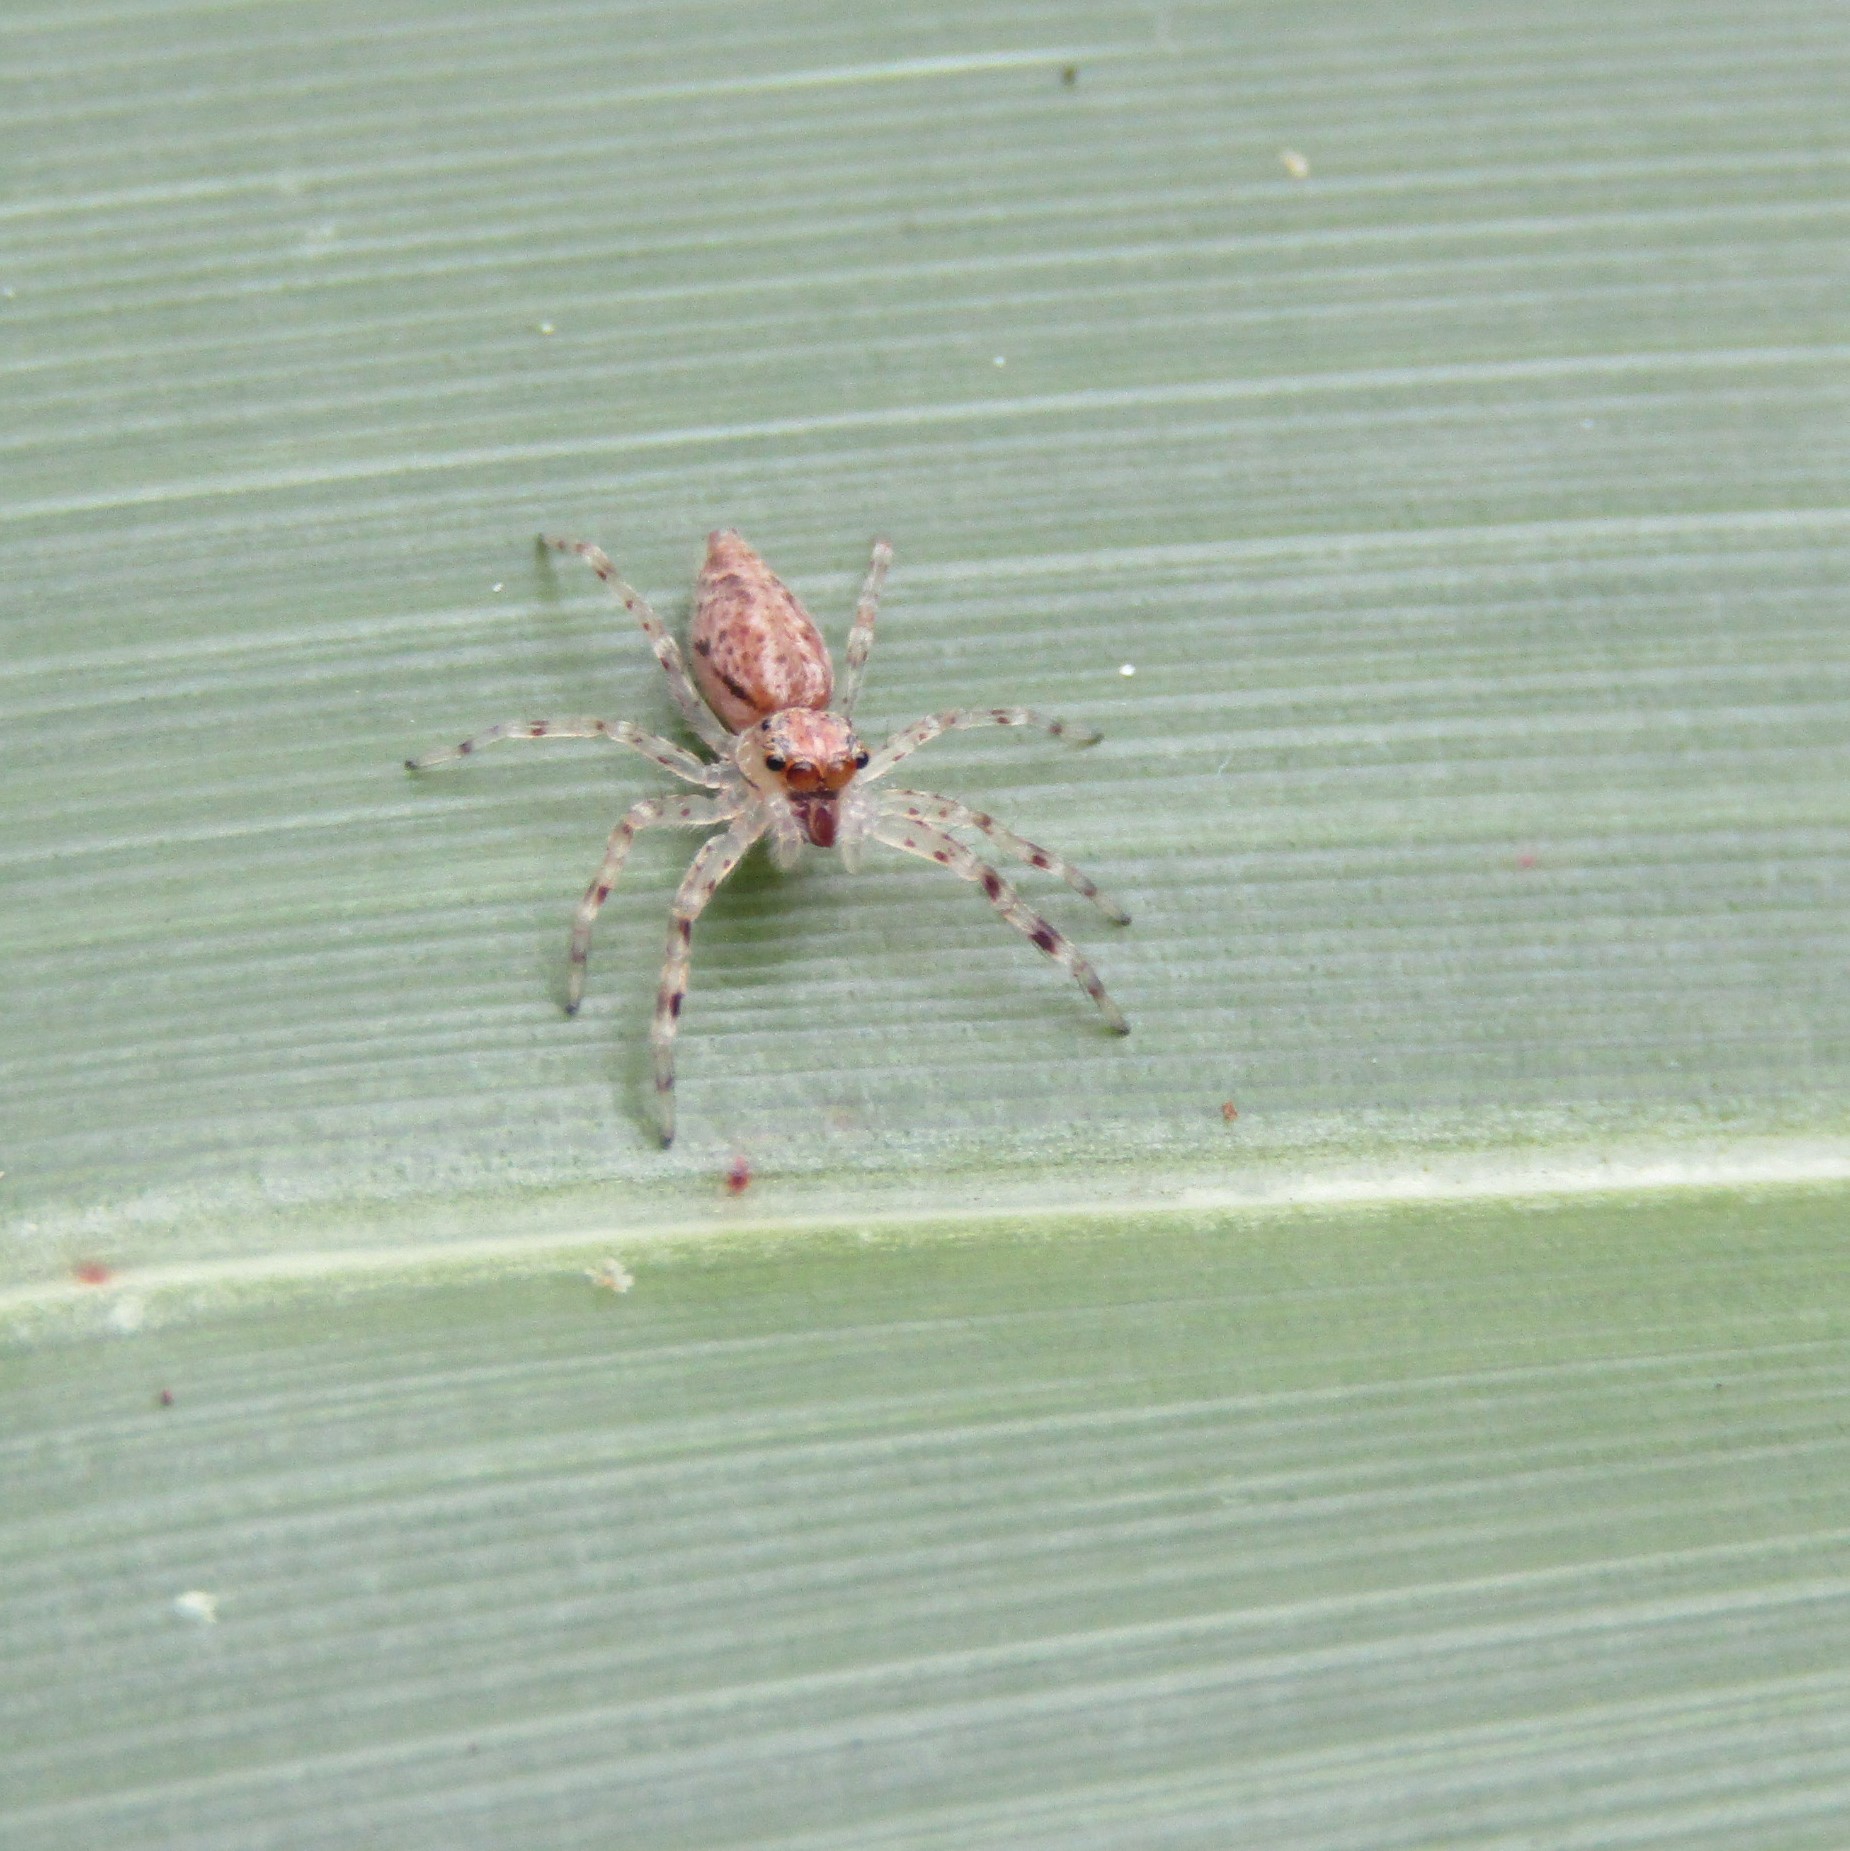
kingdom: Animalia
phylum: Arthropoda
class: Arachnida
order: Araneae
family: Salticidae
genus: Helpis
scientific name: Helpis minitabunda
